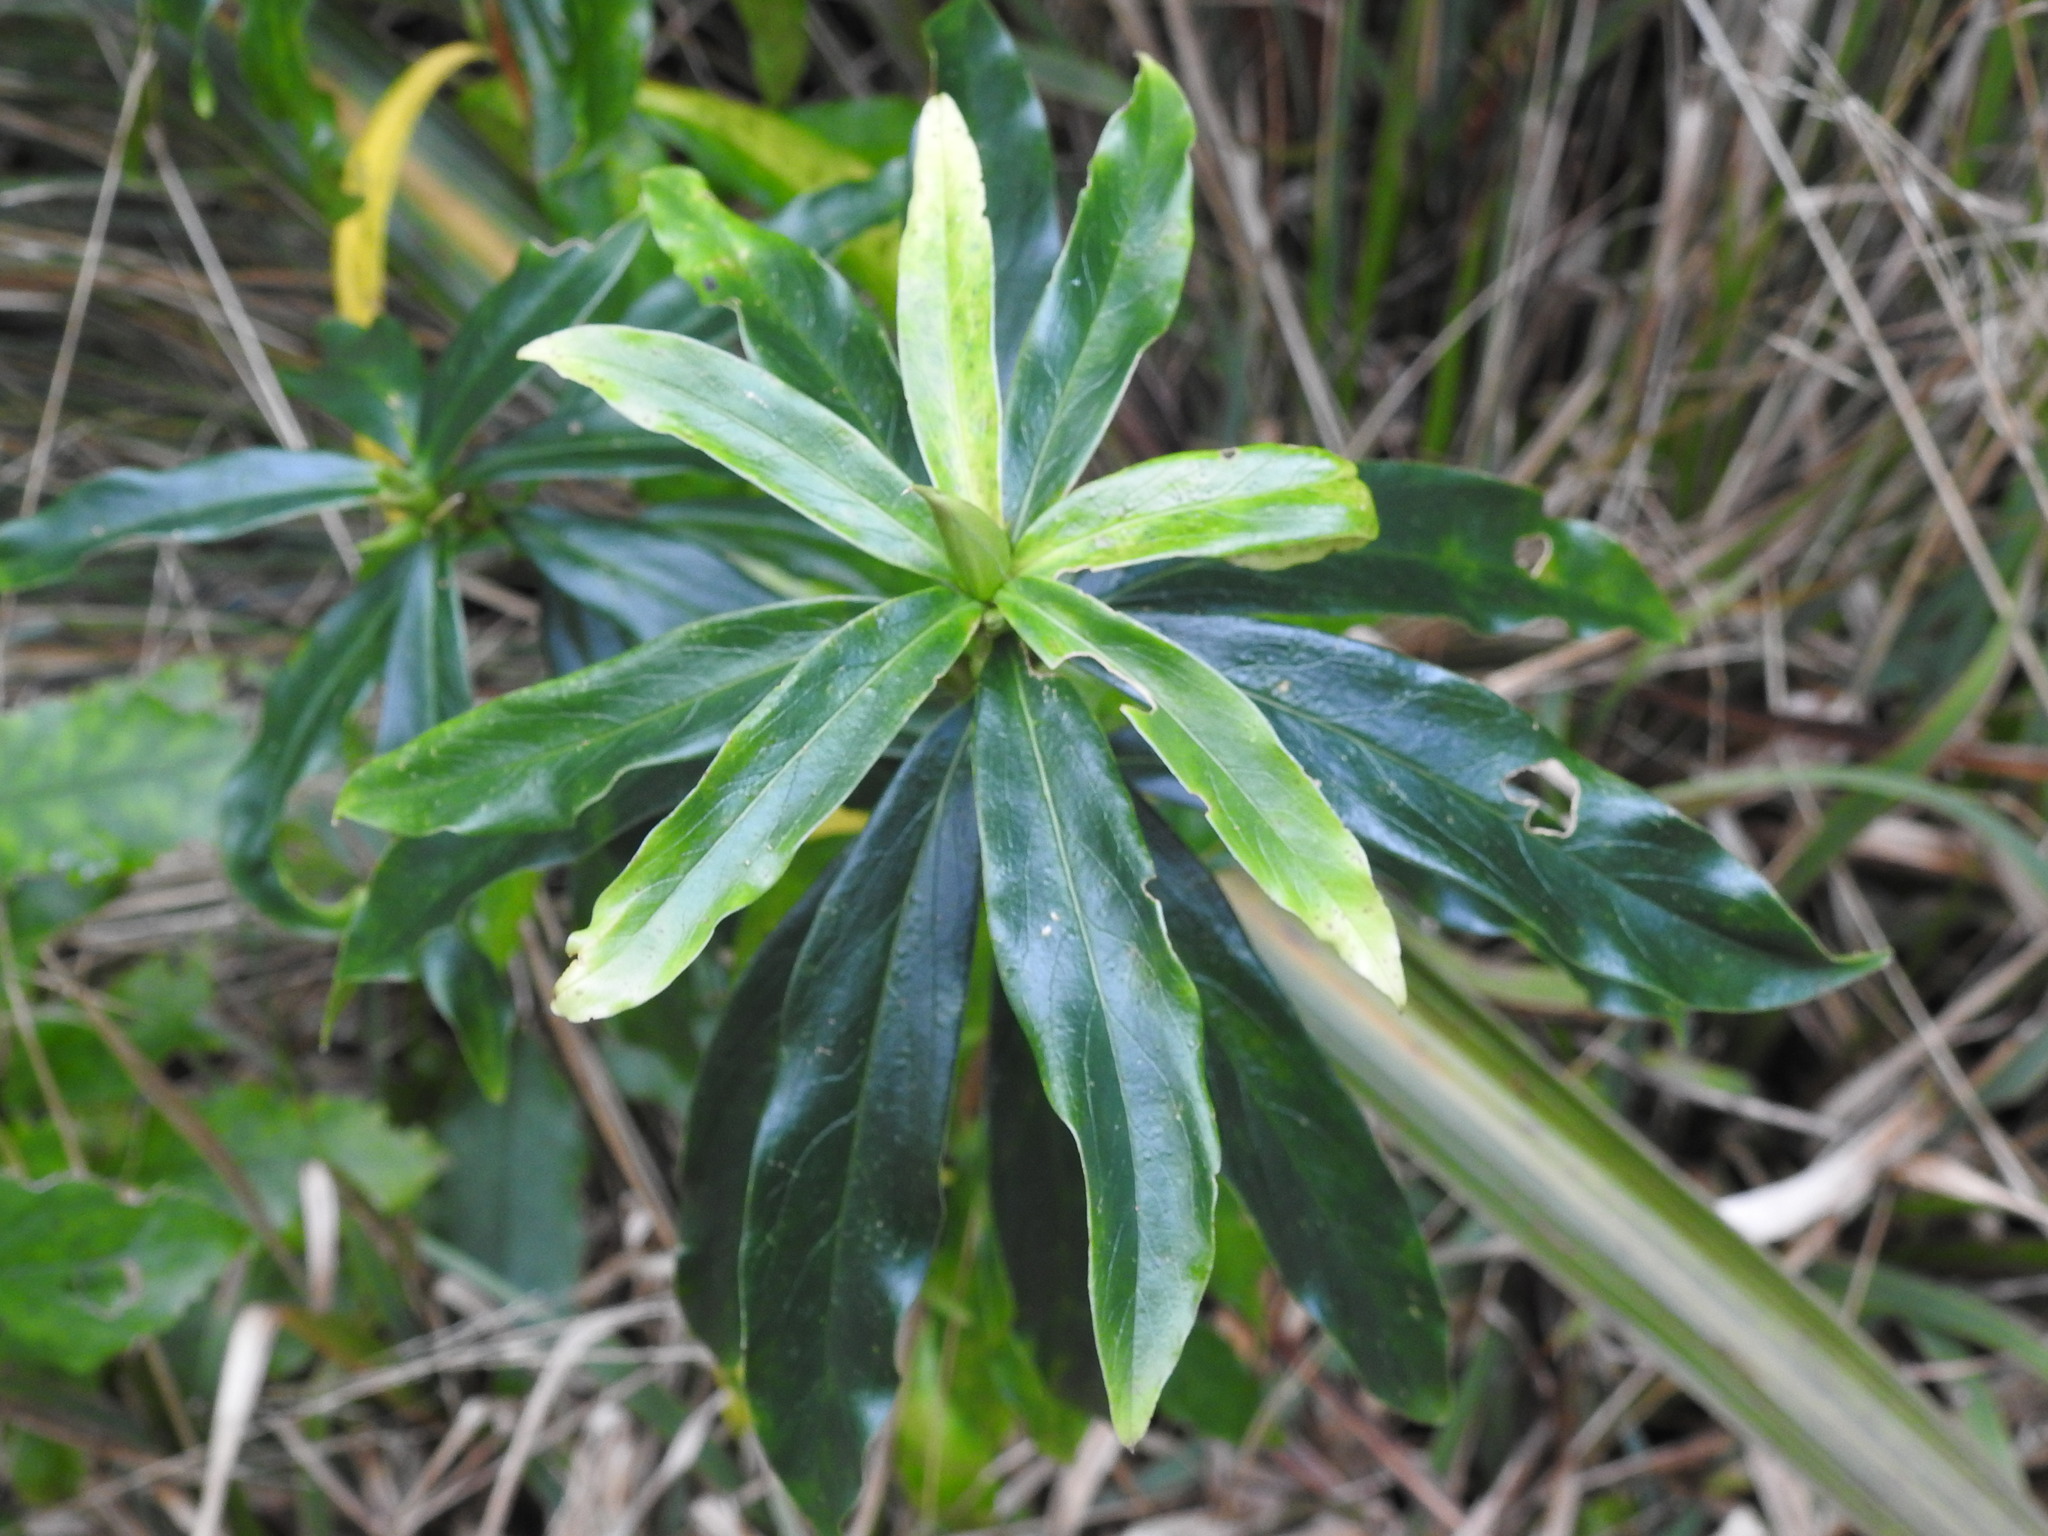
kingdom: Plantae
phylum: Tracheophyta
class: Magnoliopsida
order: Malvales
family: Thymelaeaceae
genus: Daphne
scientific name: Daphne laureola
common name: Spurge-laurel
